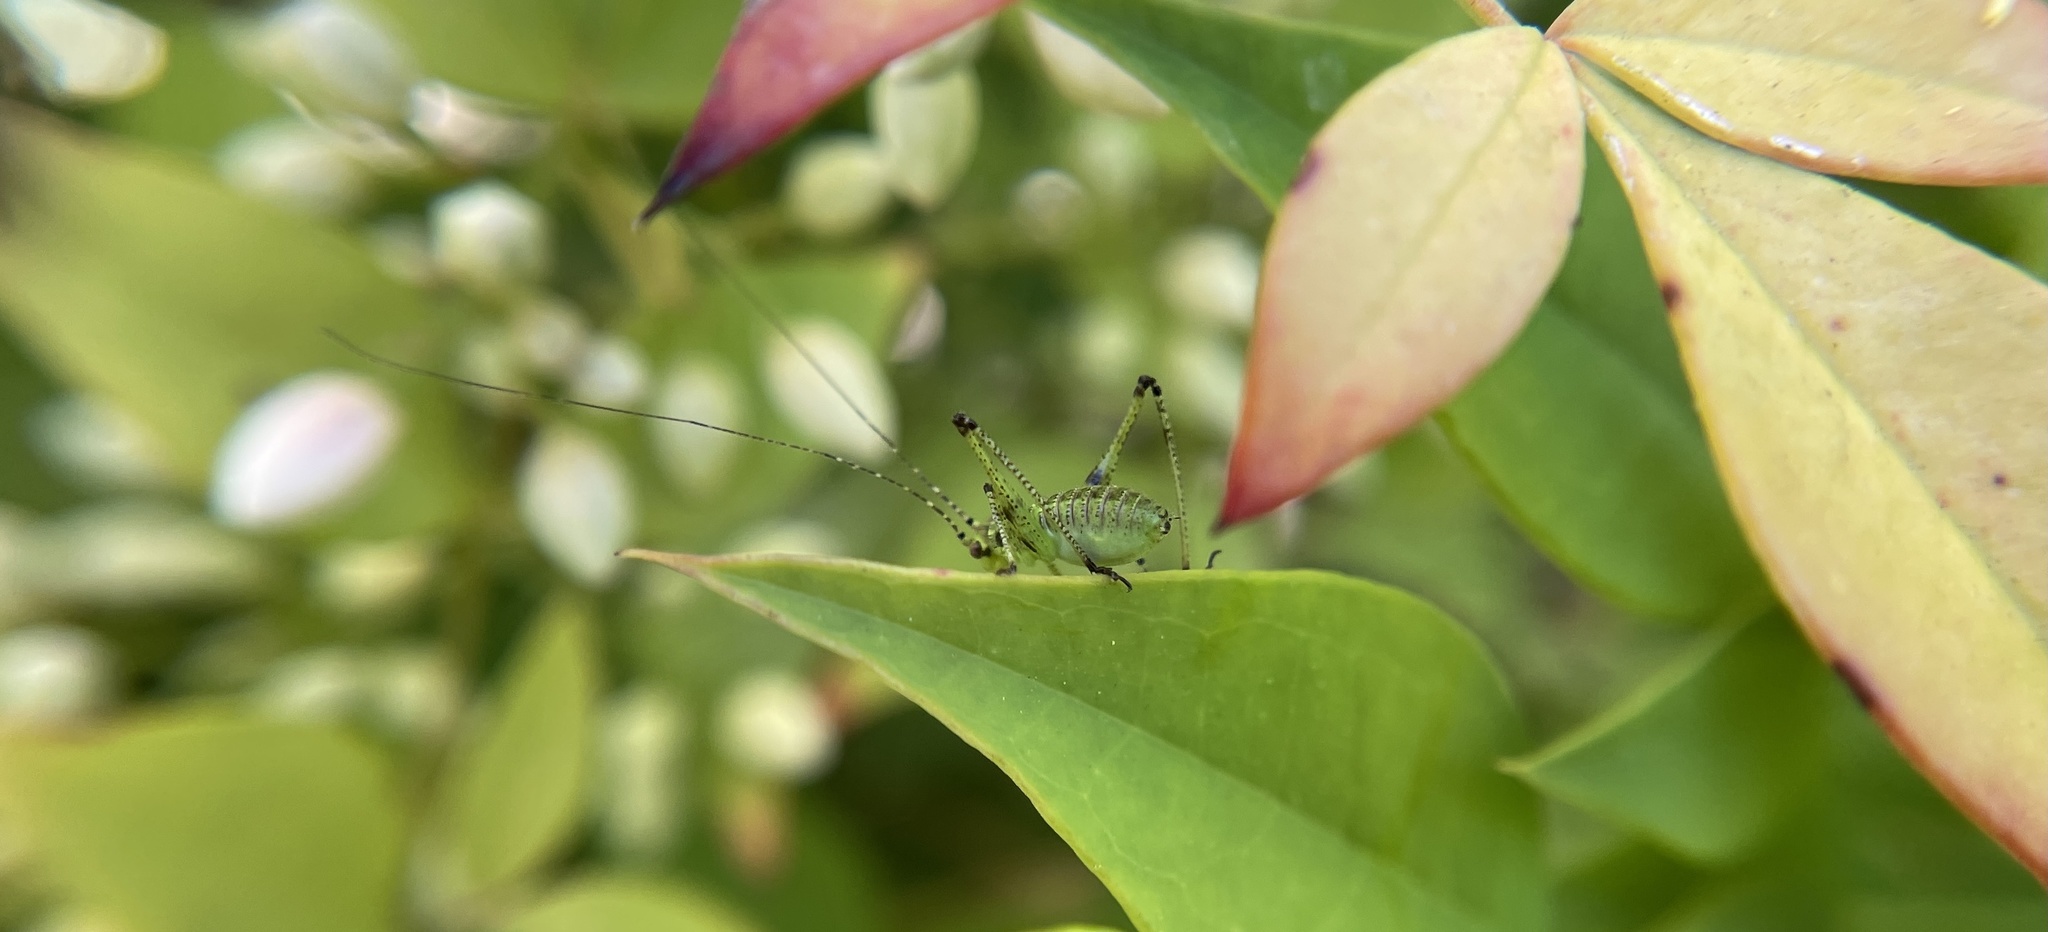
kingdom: Animalia
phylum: Arthropoda
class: Insecta
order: Orthoptera
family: Tettigoniidae
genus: Phaneroptera
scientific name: Phaneroptera nana
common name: Southern sickle bush-cricket
